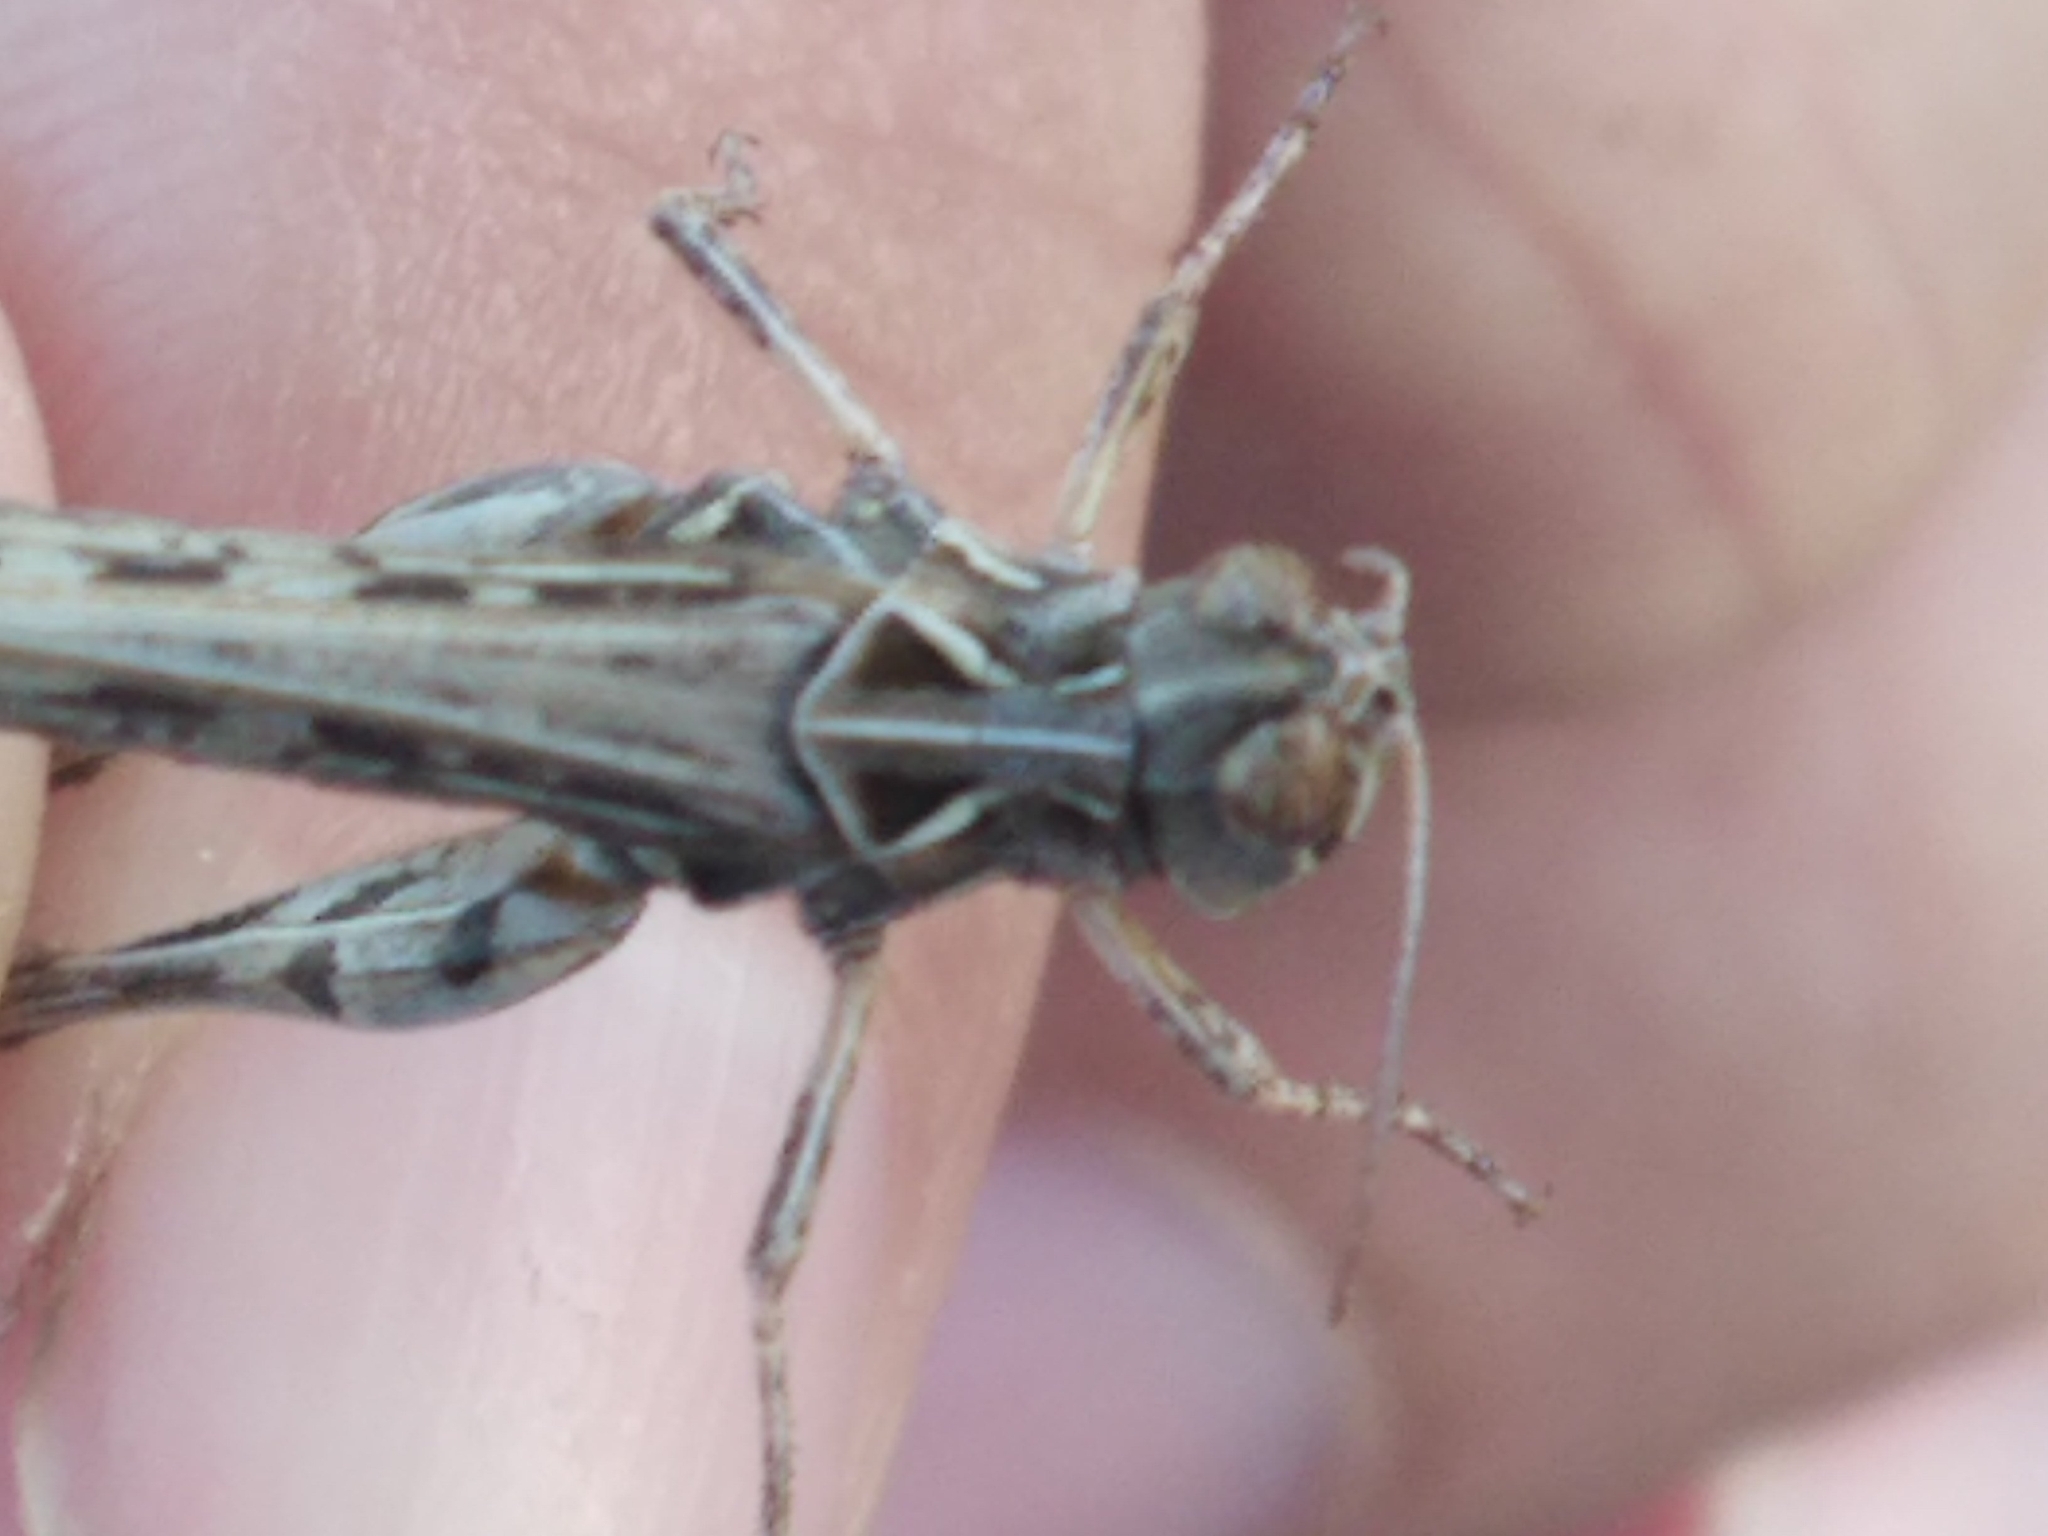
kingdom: Animalia
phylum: Arthropoda
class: Insecta
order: Orthoptera
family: Acrididae
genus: Dociostaurus
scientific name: Dociostaurus jagoi
